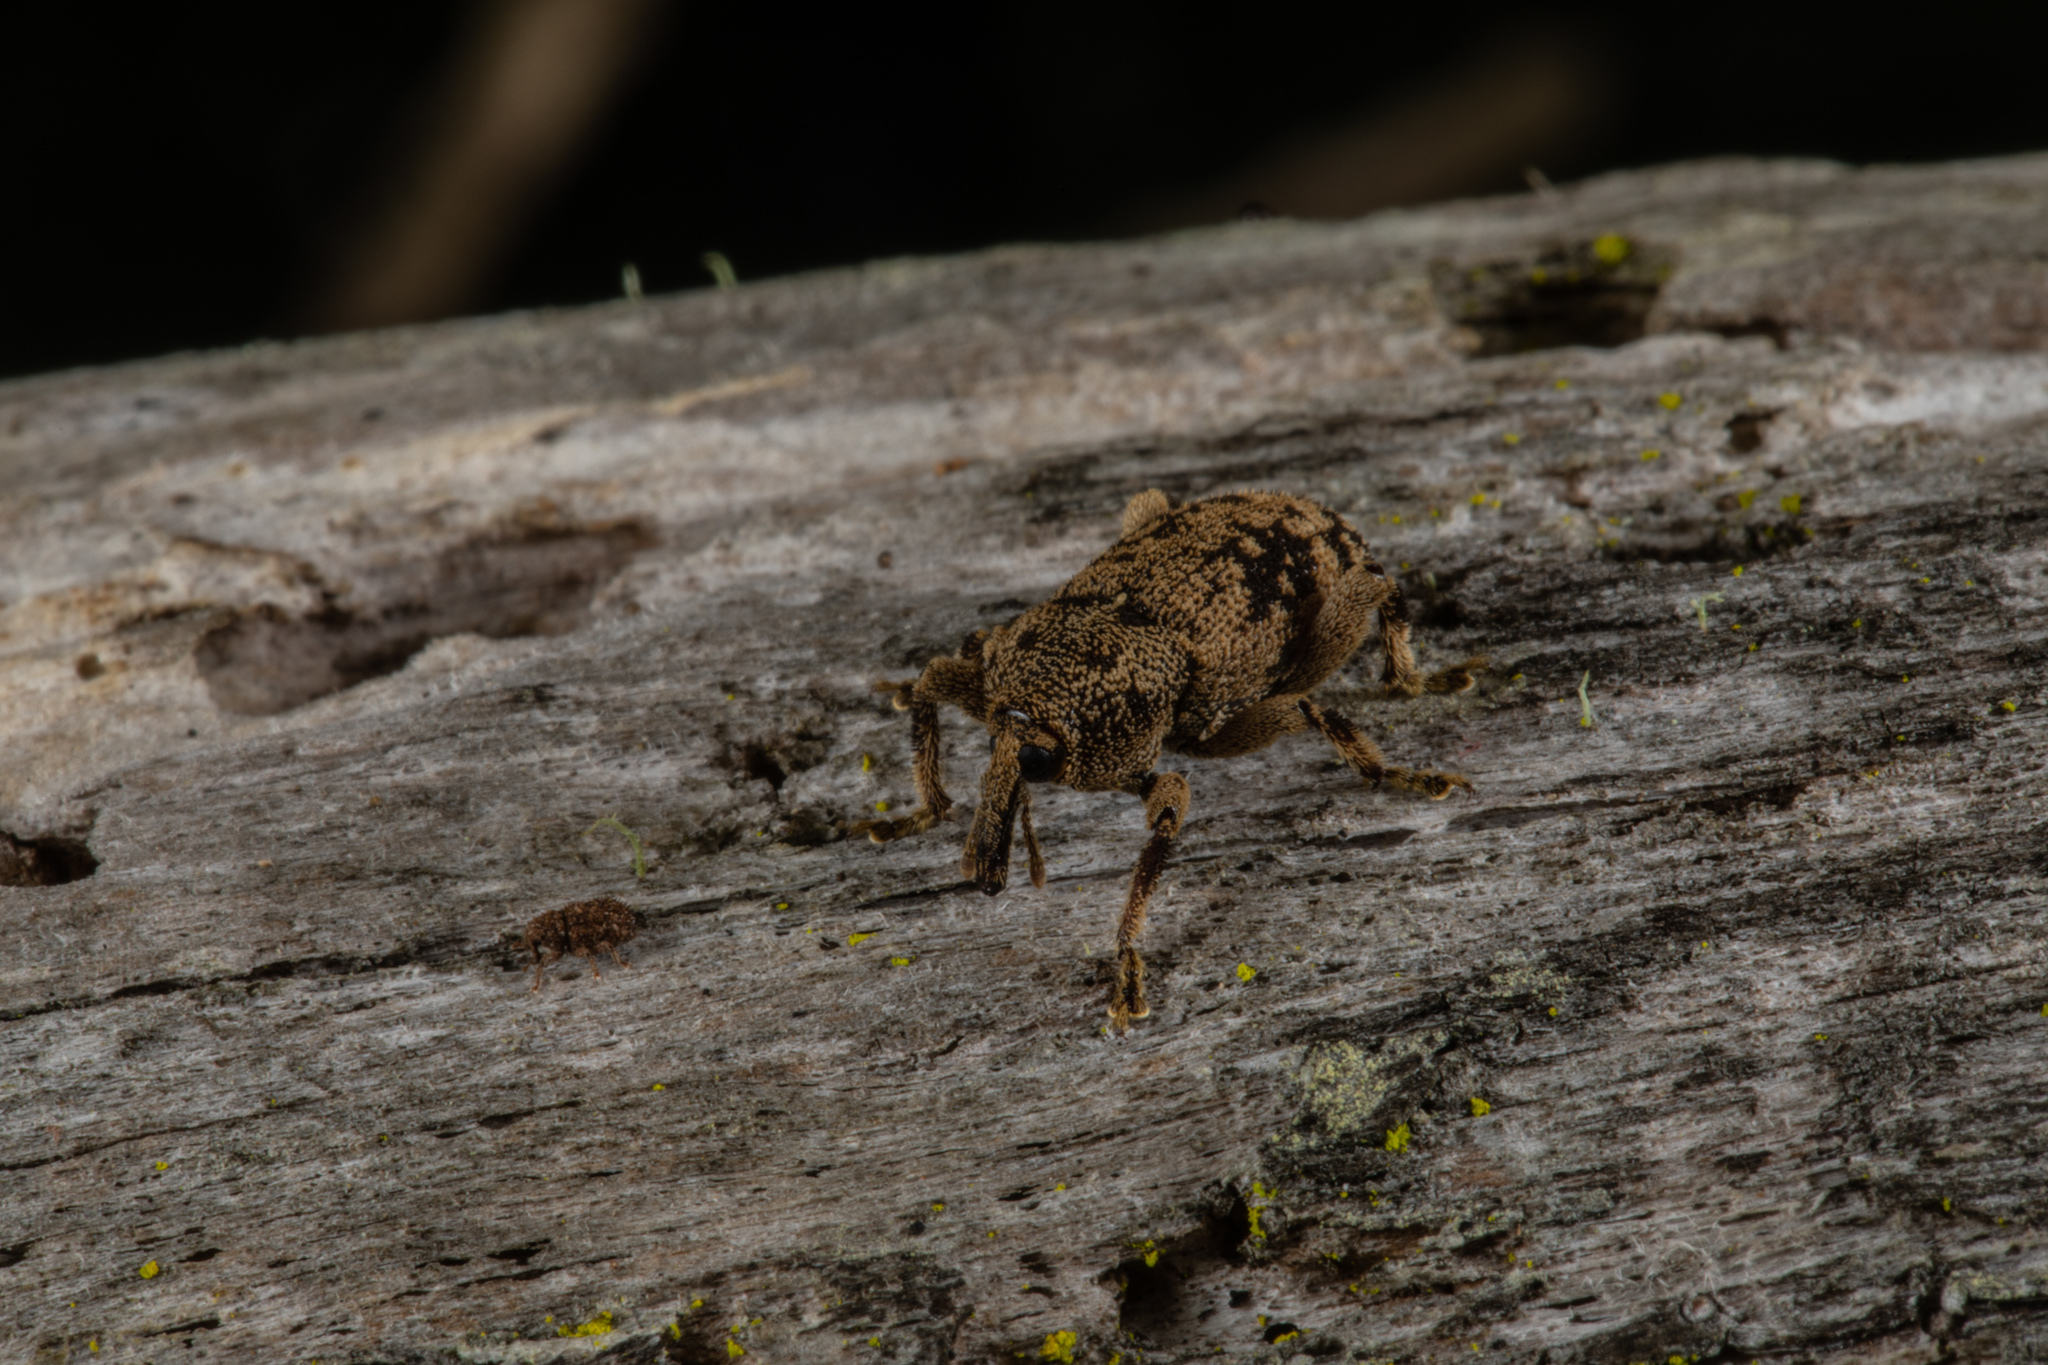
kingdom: Animalia
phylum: Arthropoda
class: Insecta
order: Coleoptera
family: Curculionidae
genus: Strongylopterus
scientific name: Strongylopterus hylopioides
